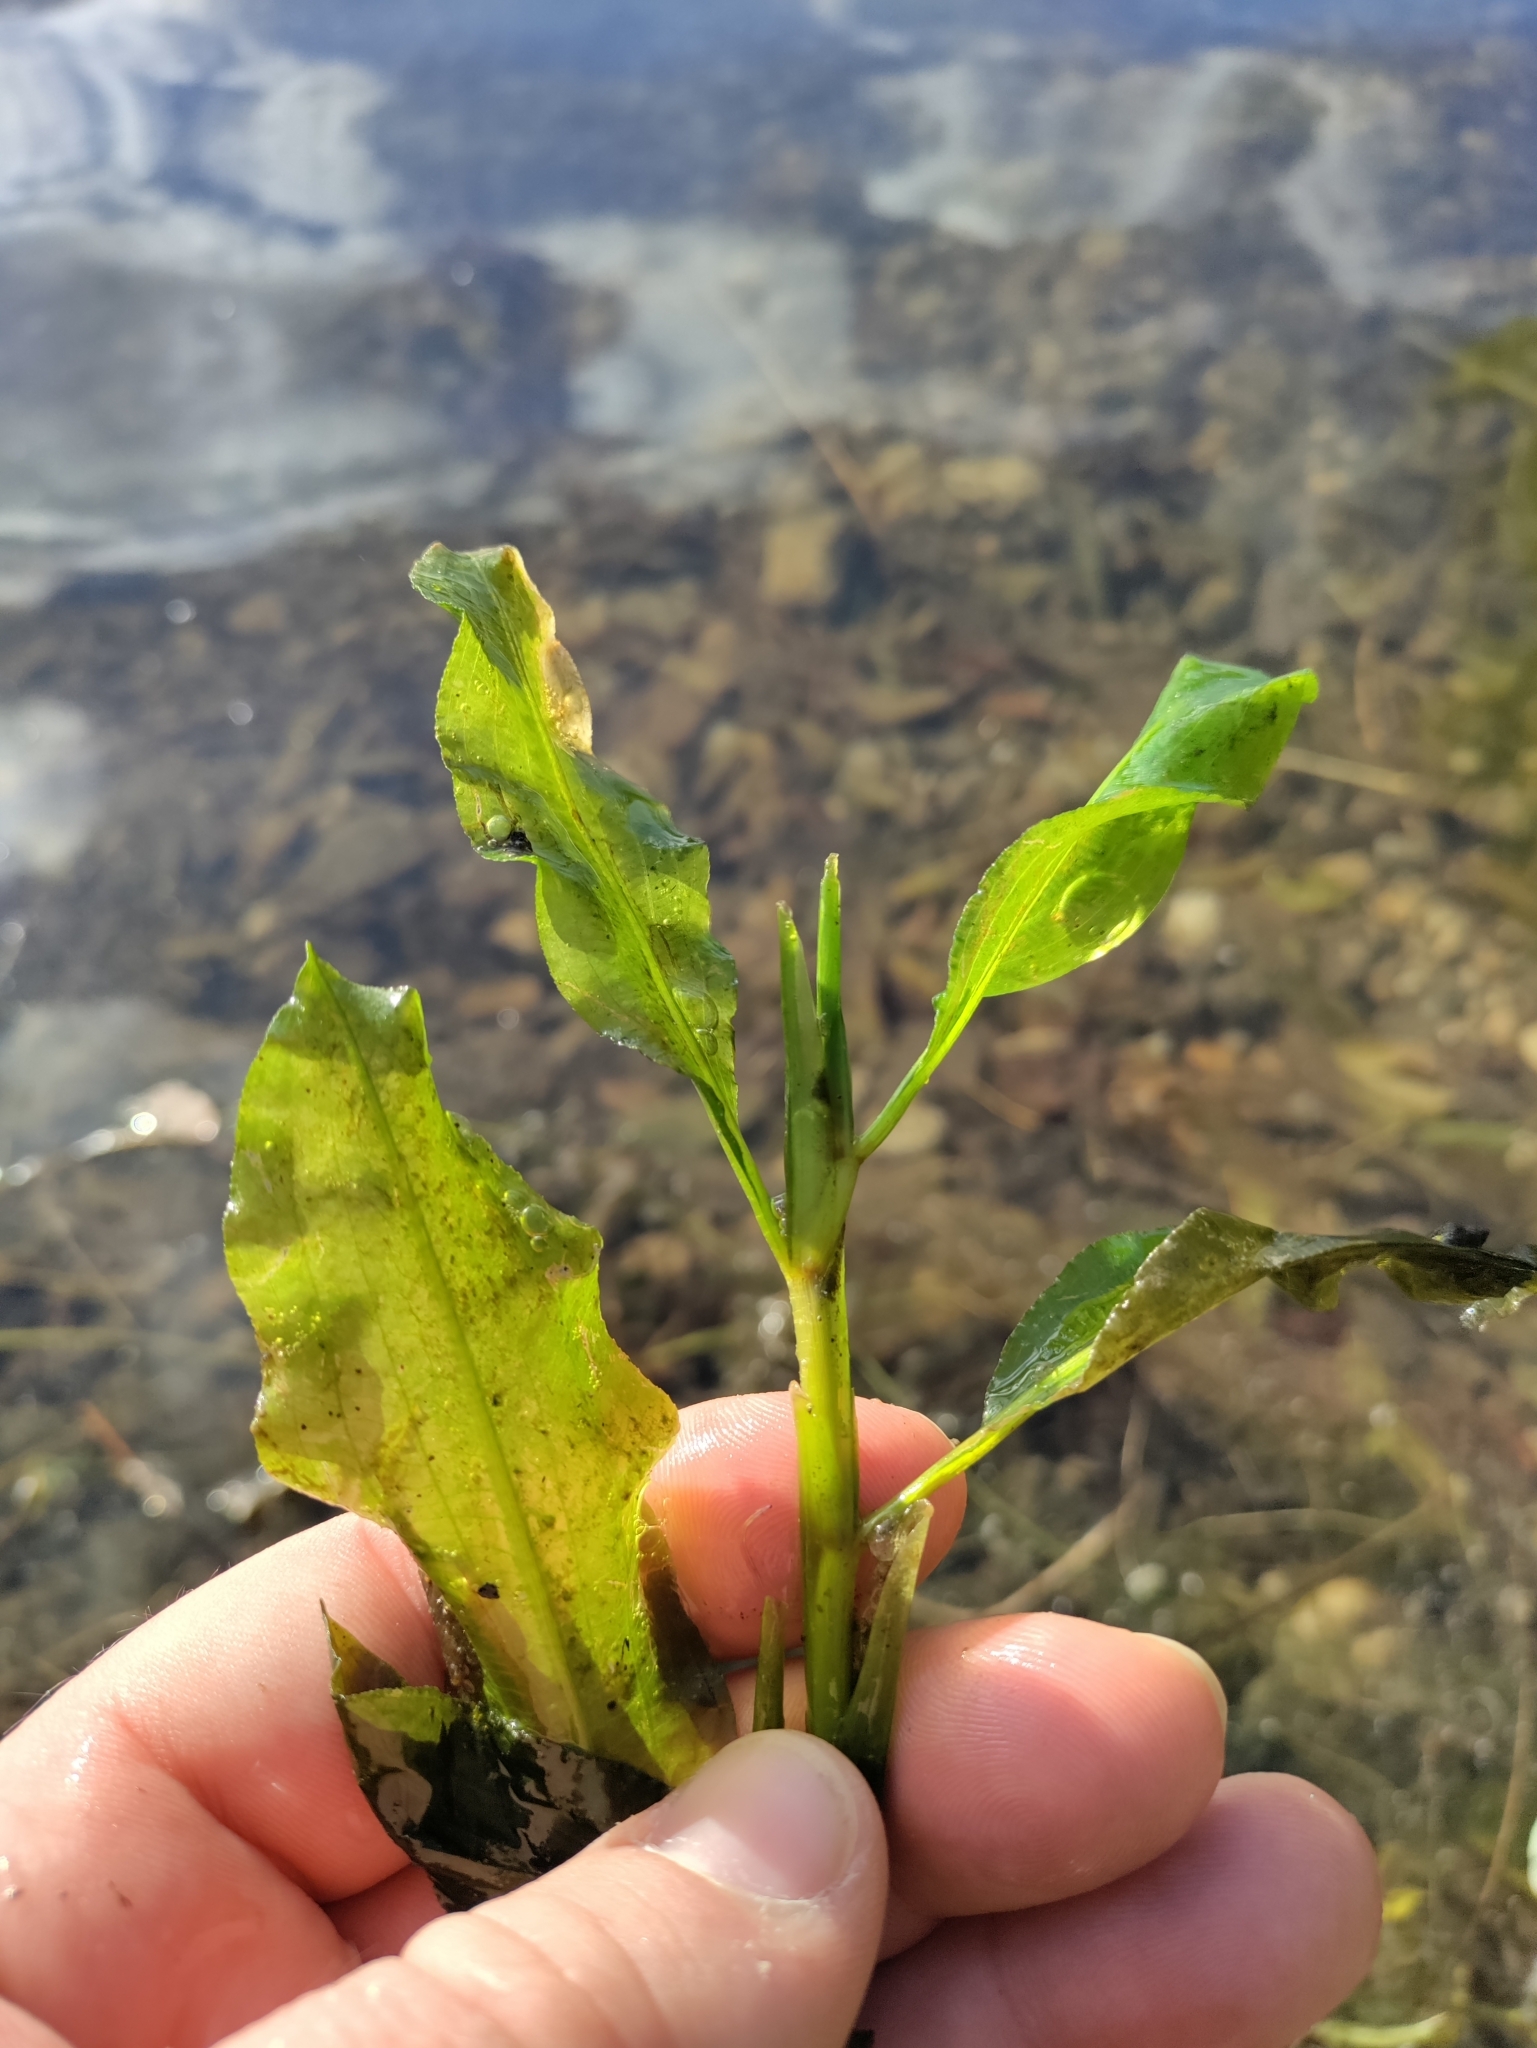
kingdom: Plantae
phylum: Tracheophyta
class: Liliopsida
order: Alismatales
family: Potamogetonaceae
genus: Potamogeton
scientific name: Potamogeton lucens
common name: Shining pondweed
